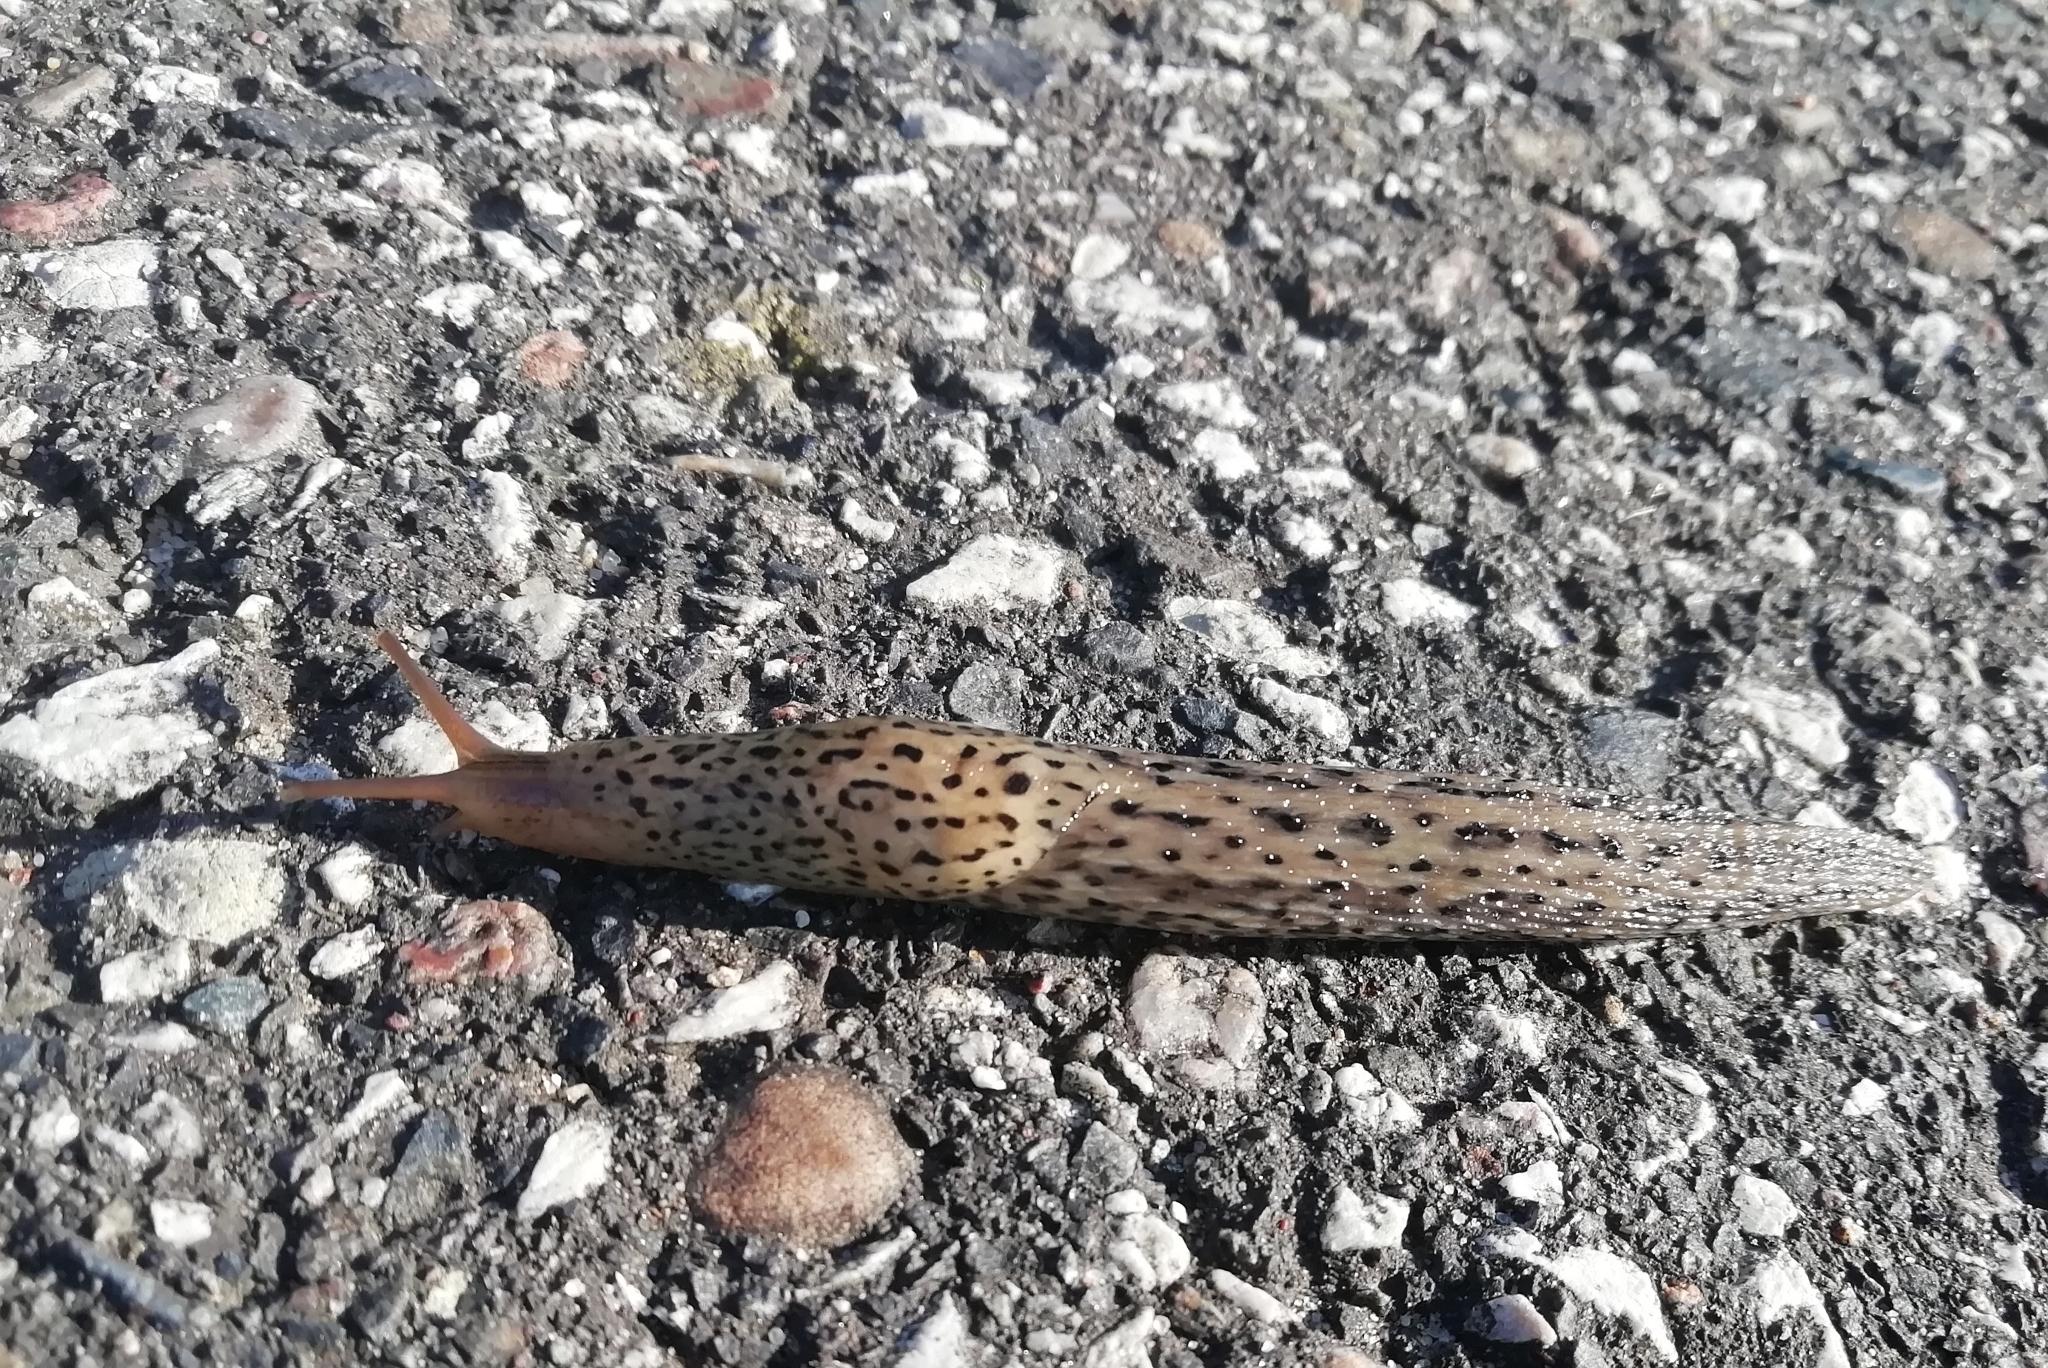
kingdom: Animalia
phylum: Mollusca
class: Gastropoda
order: Stylommatophora
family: Limacidae
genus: Limax
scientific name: Limax maximus
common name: Great grey slug
